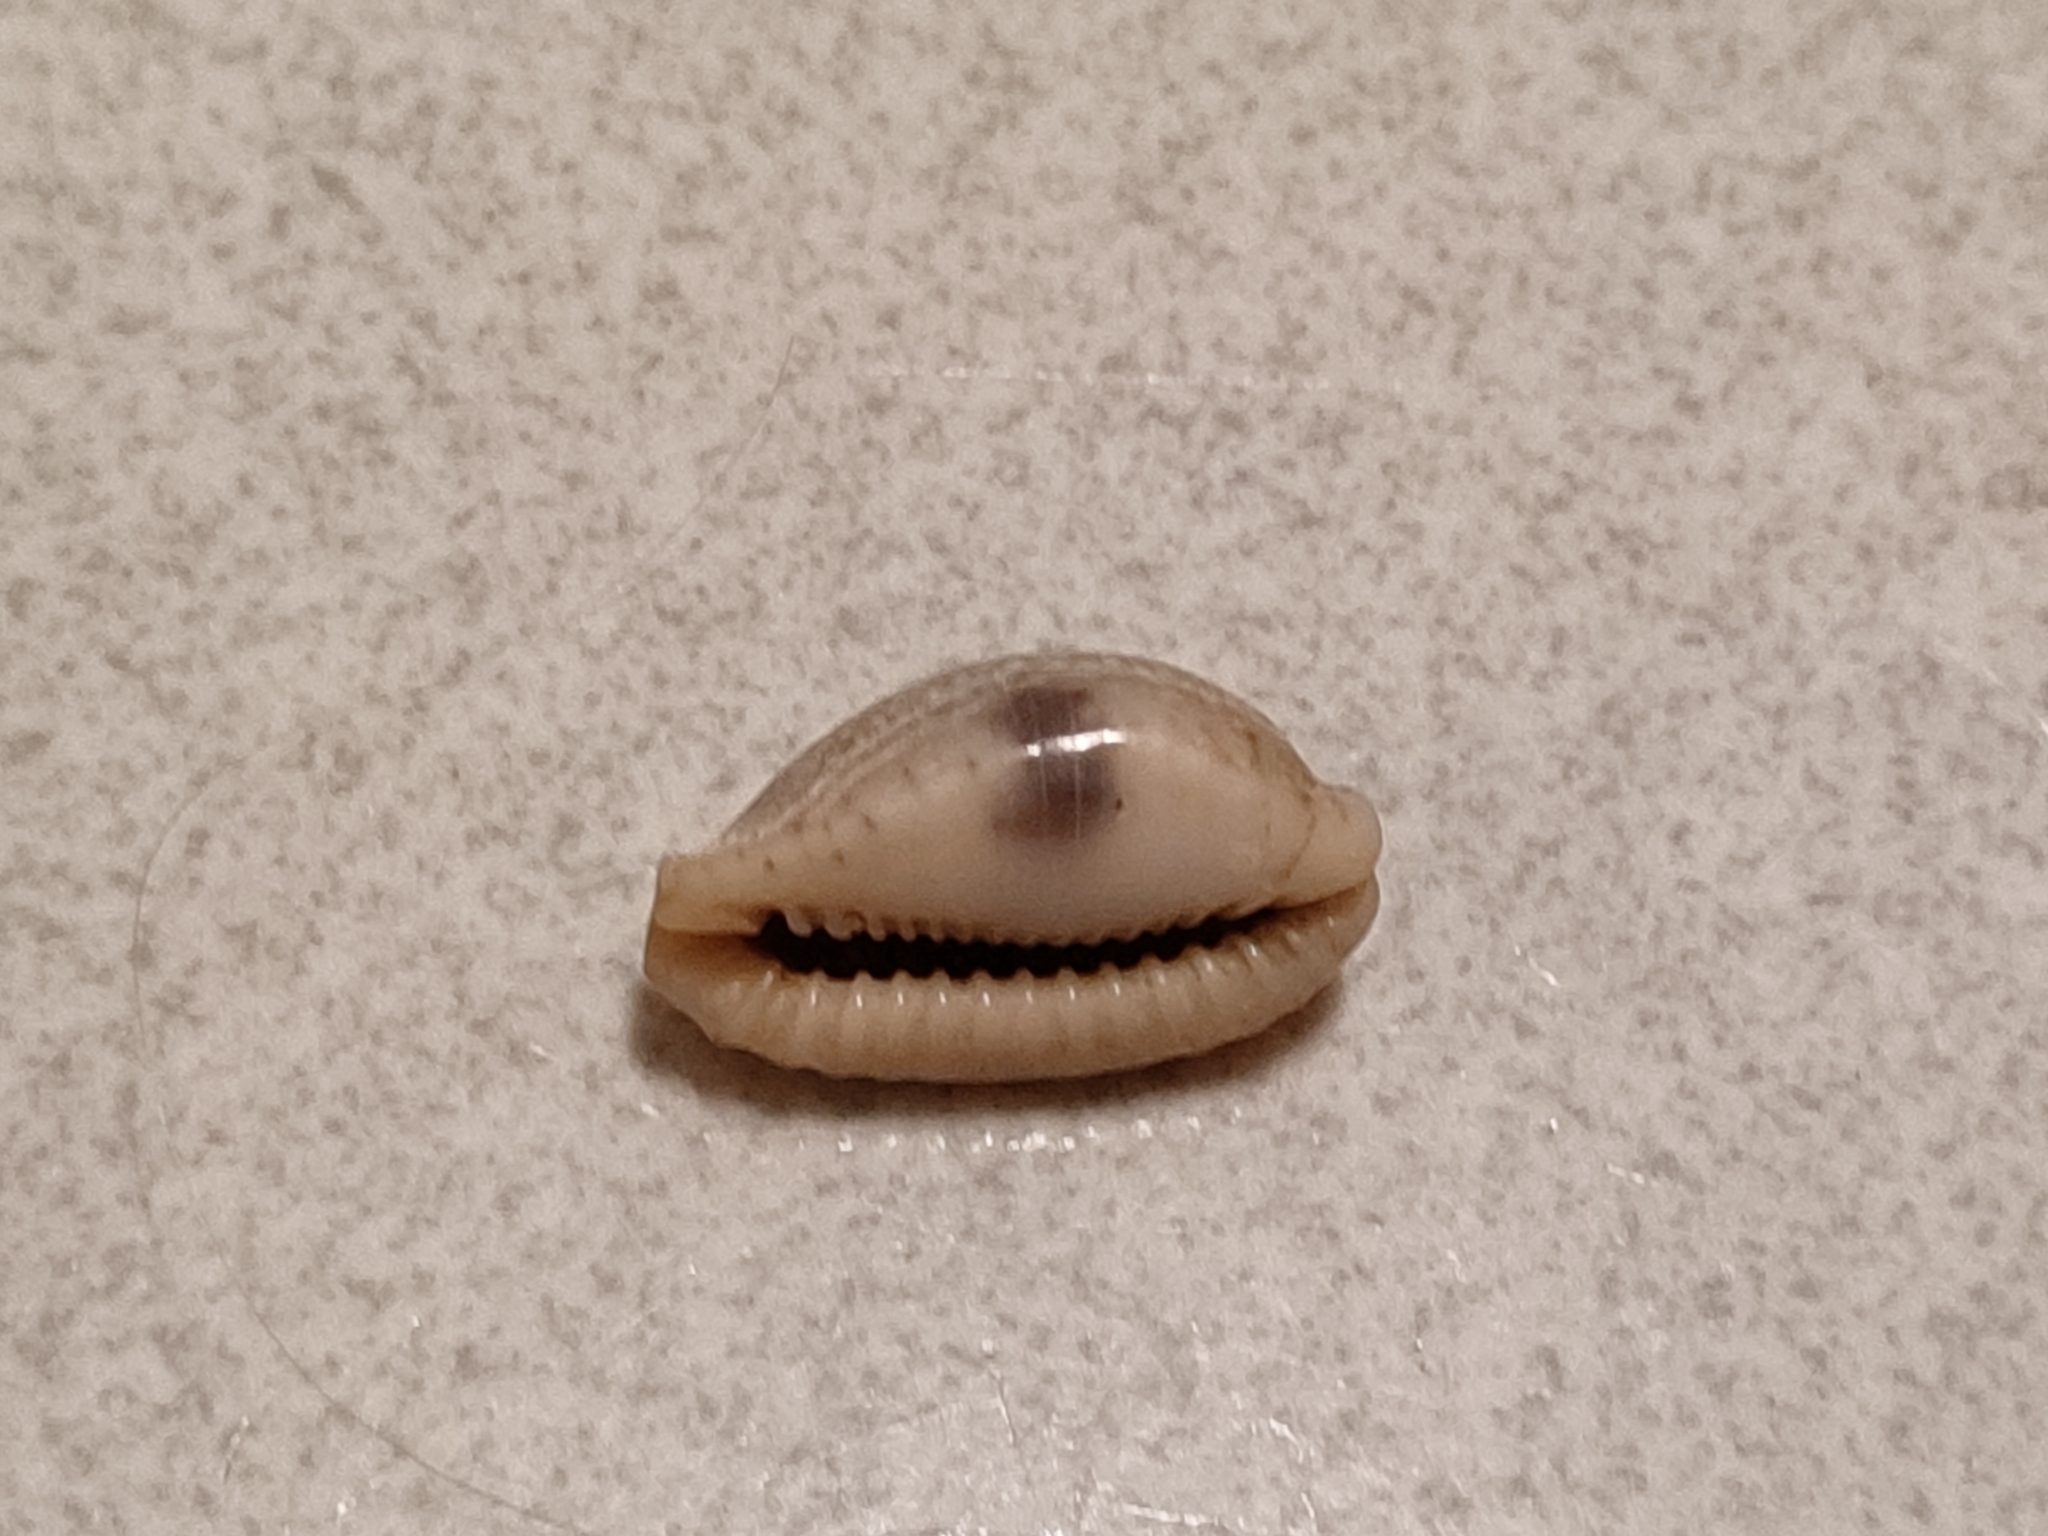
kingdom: Animalia
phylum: Mollusca
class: Gastropoda
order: Littorinimorpha
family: Cypraeidae
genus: Naria
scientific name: Naria erosa
